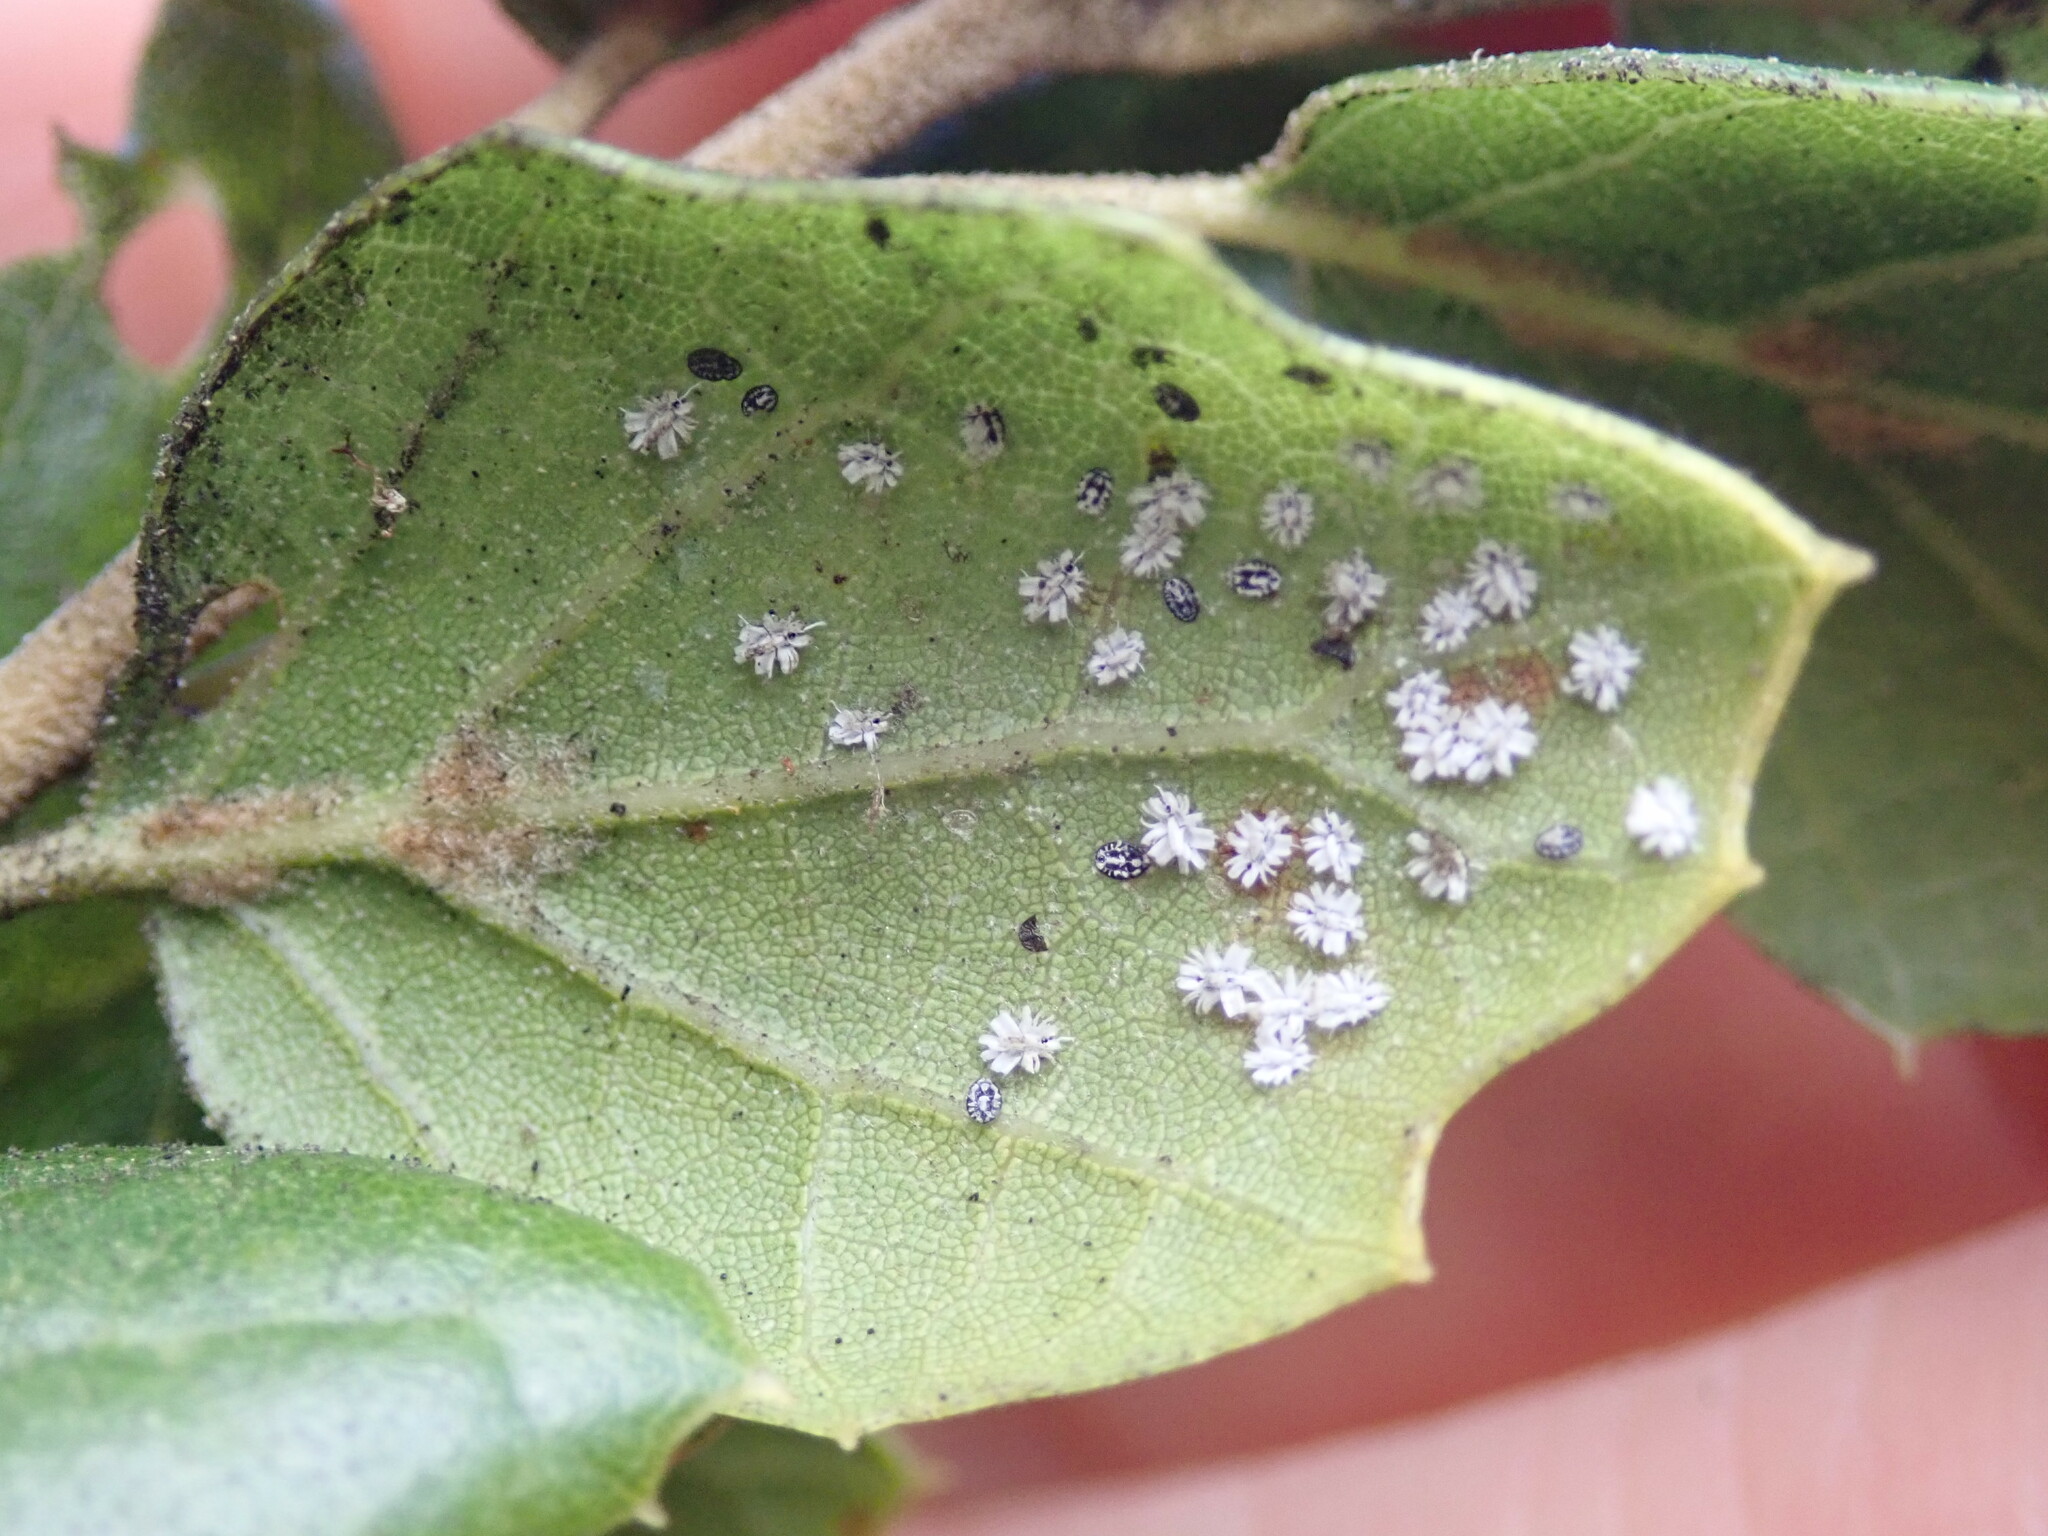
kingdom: Animalia
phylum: Arthropoda
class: Insecta
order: Hemiptera
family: Aleyrodidae
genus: Aleuroplatus
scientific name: Aleuroplatus coronata
